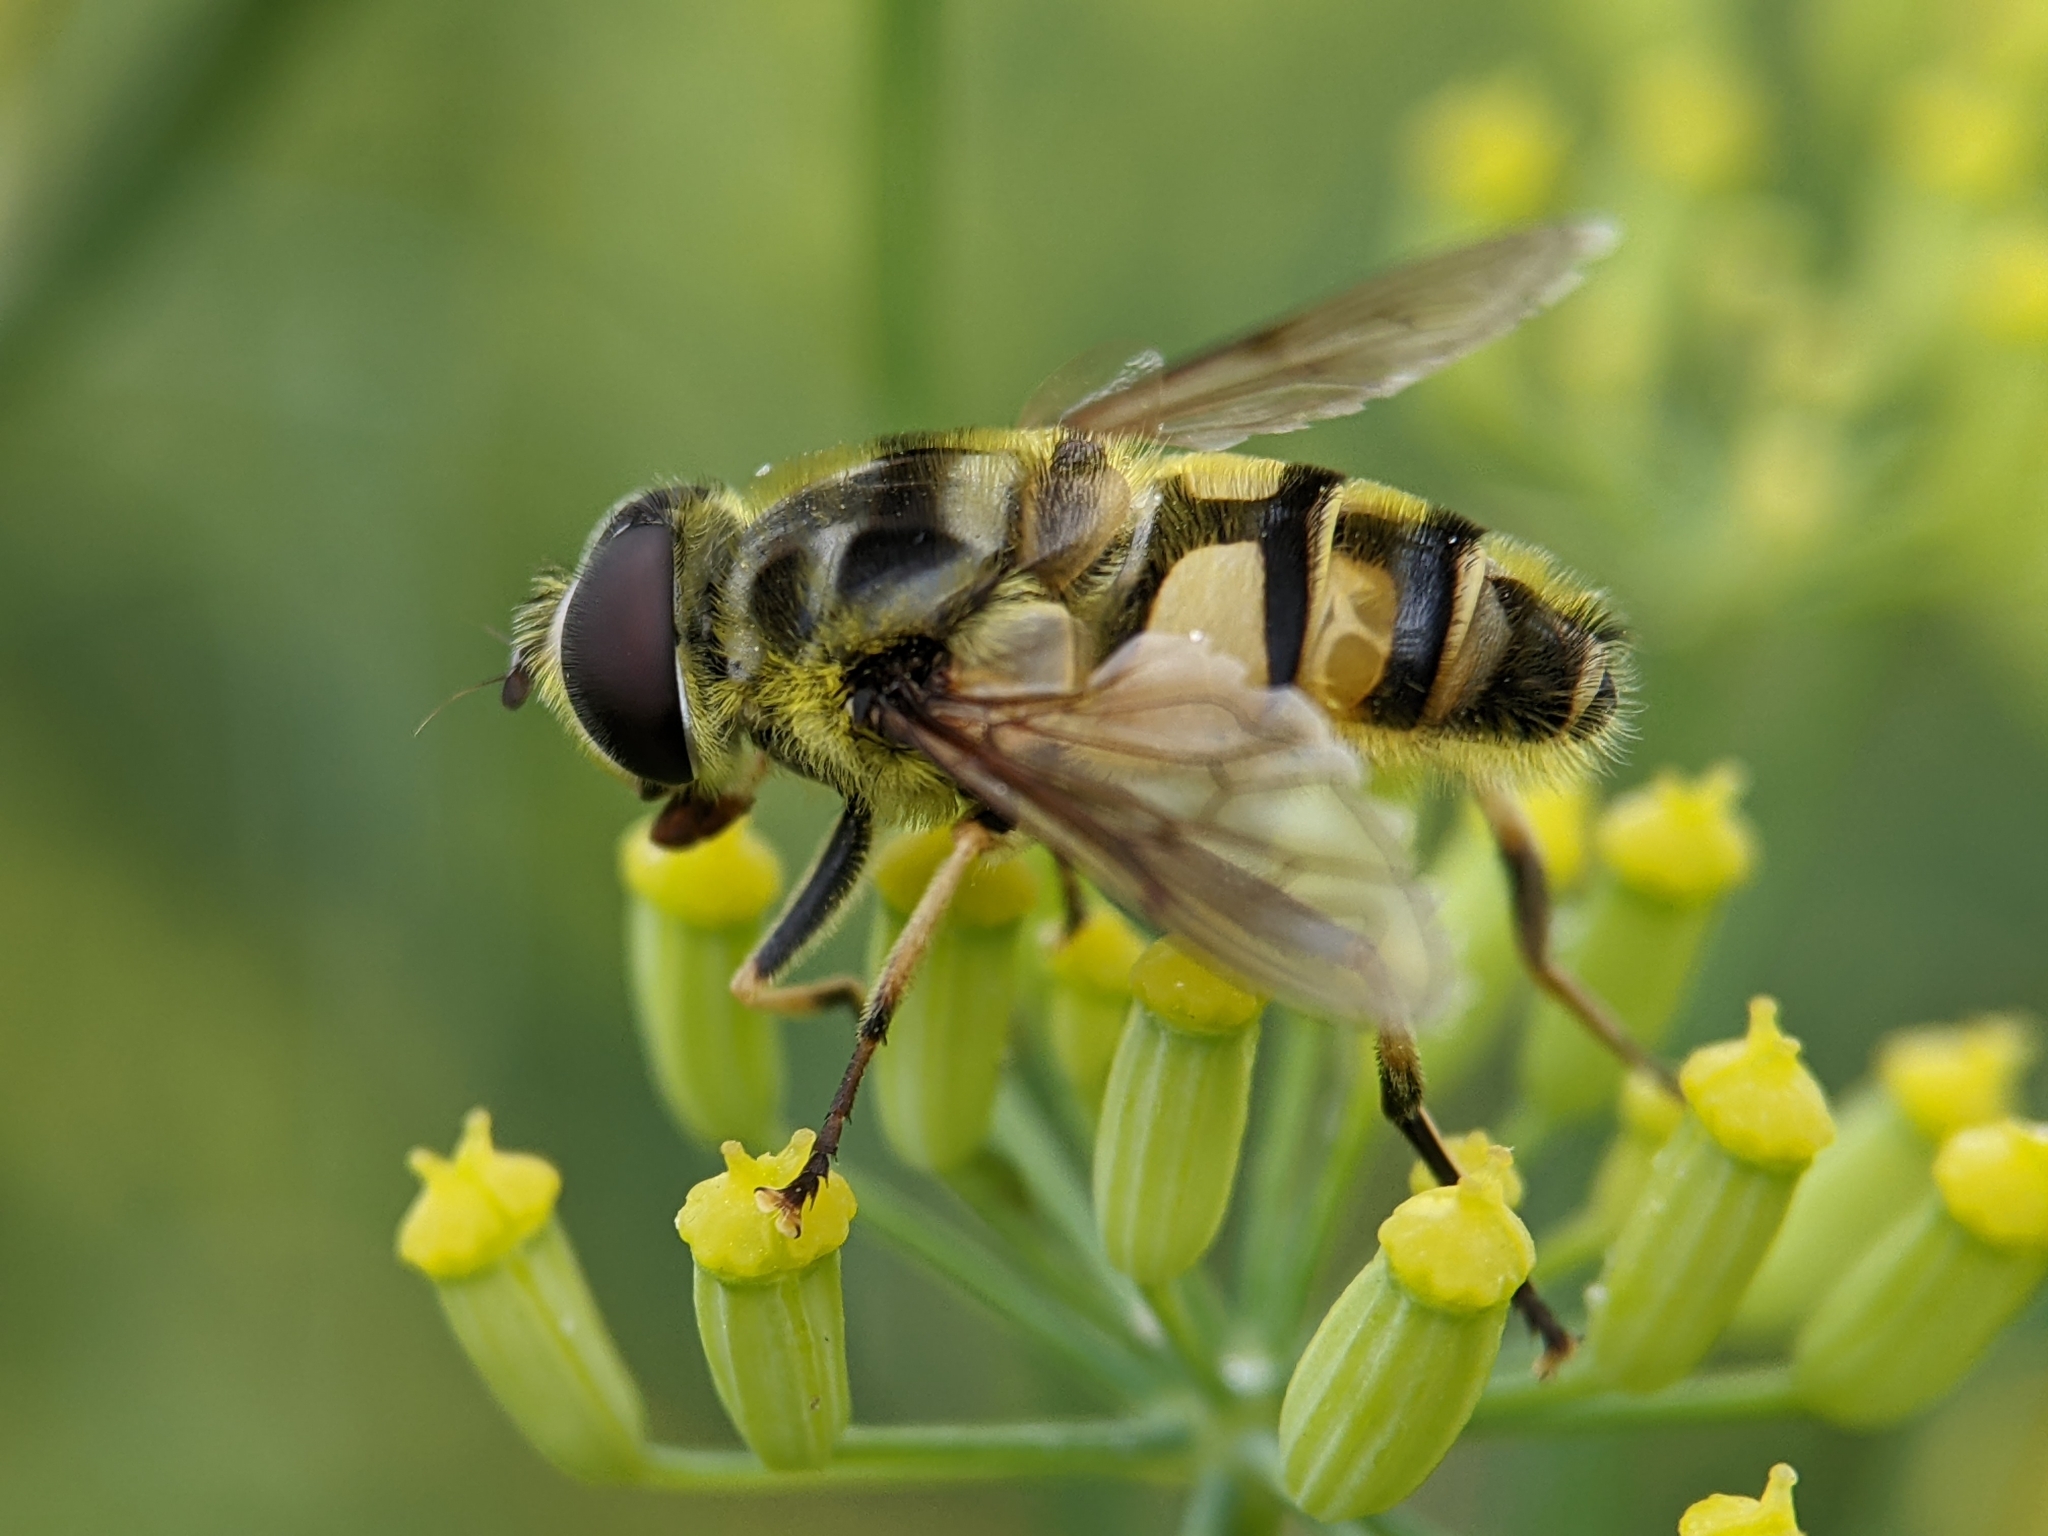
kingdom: Animalia
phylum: Arthropoda
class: Insecta
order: Diptera
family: Syrphidae
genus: Myathropa
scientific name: Myathropa florea
